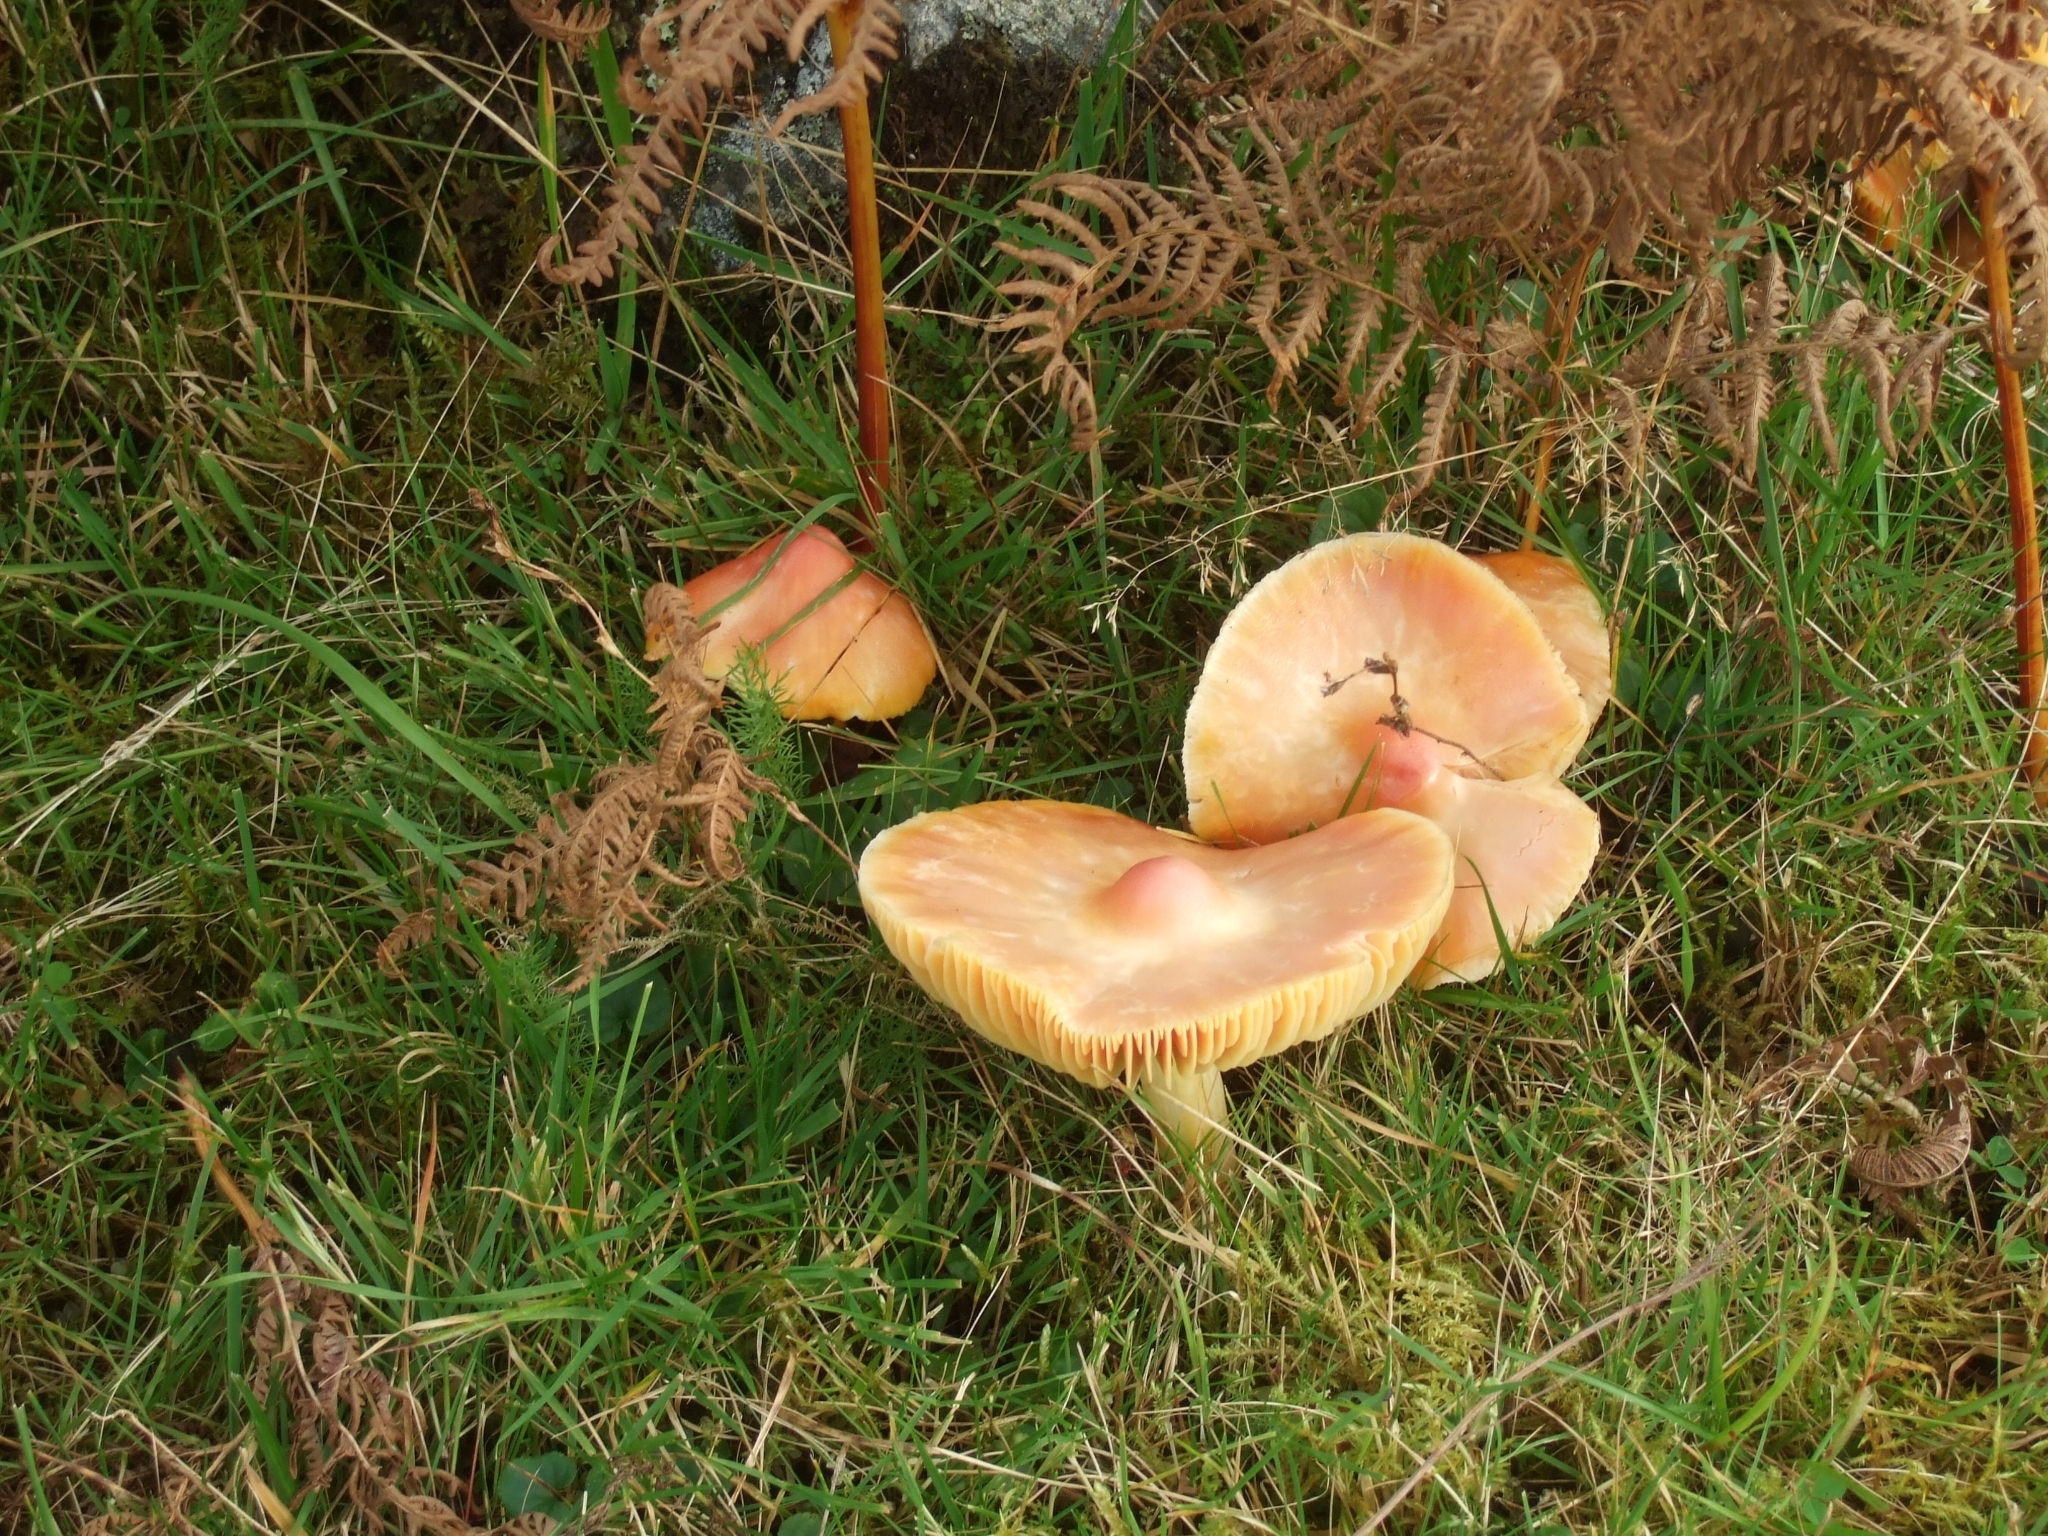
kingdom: Fungi
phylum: Basidiomycota
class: Agaricomycetes
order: Agaricales
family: Hygrophoraceae
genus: Hygrocybe
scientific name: Hygrocybe punicea
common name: Crimson waxcap
